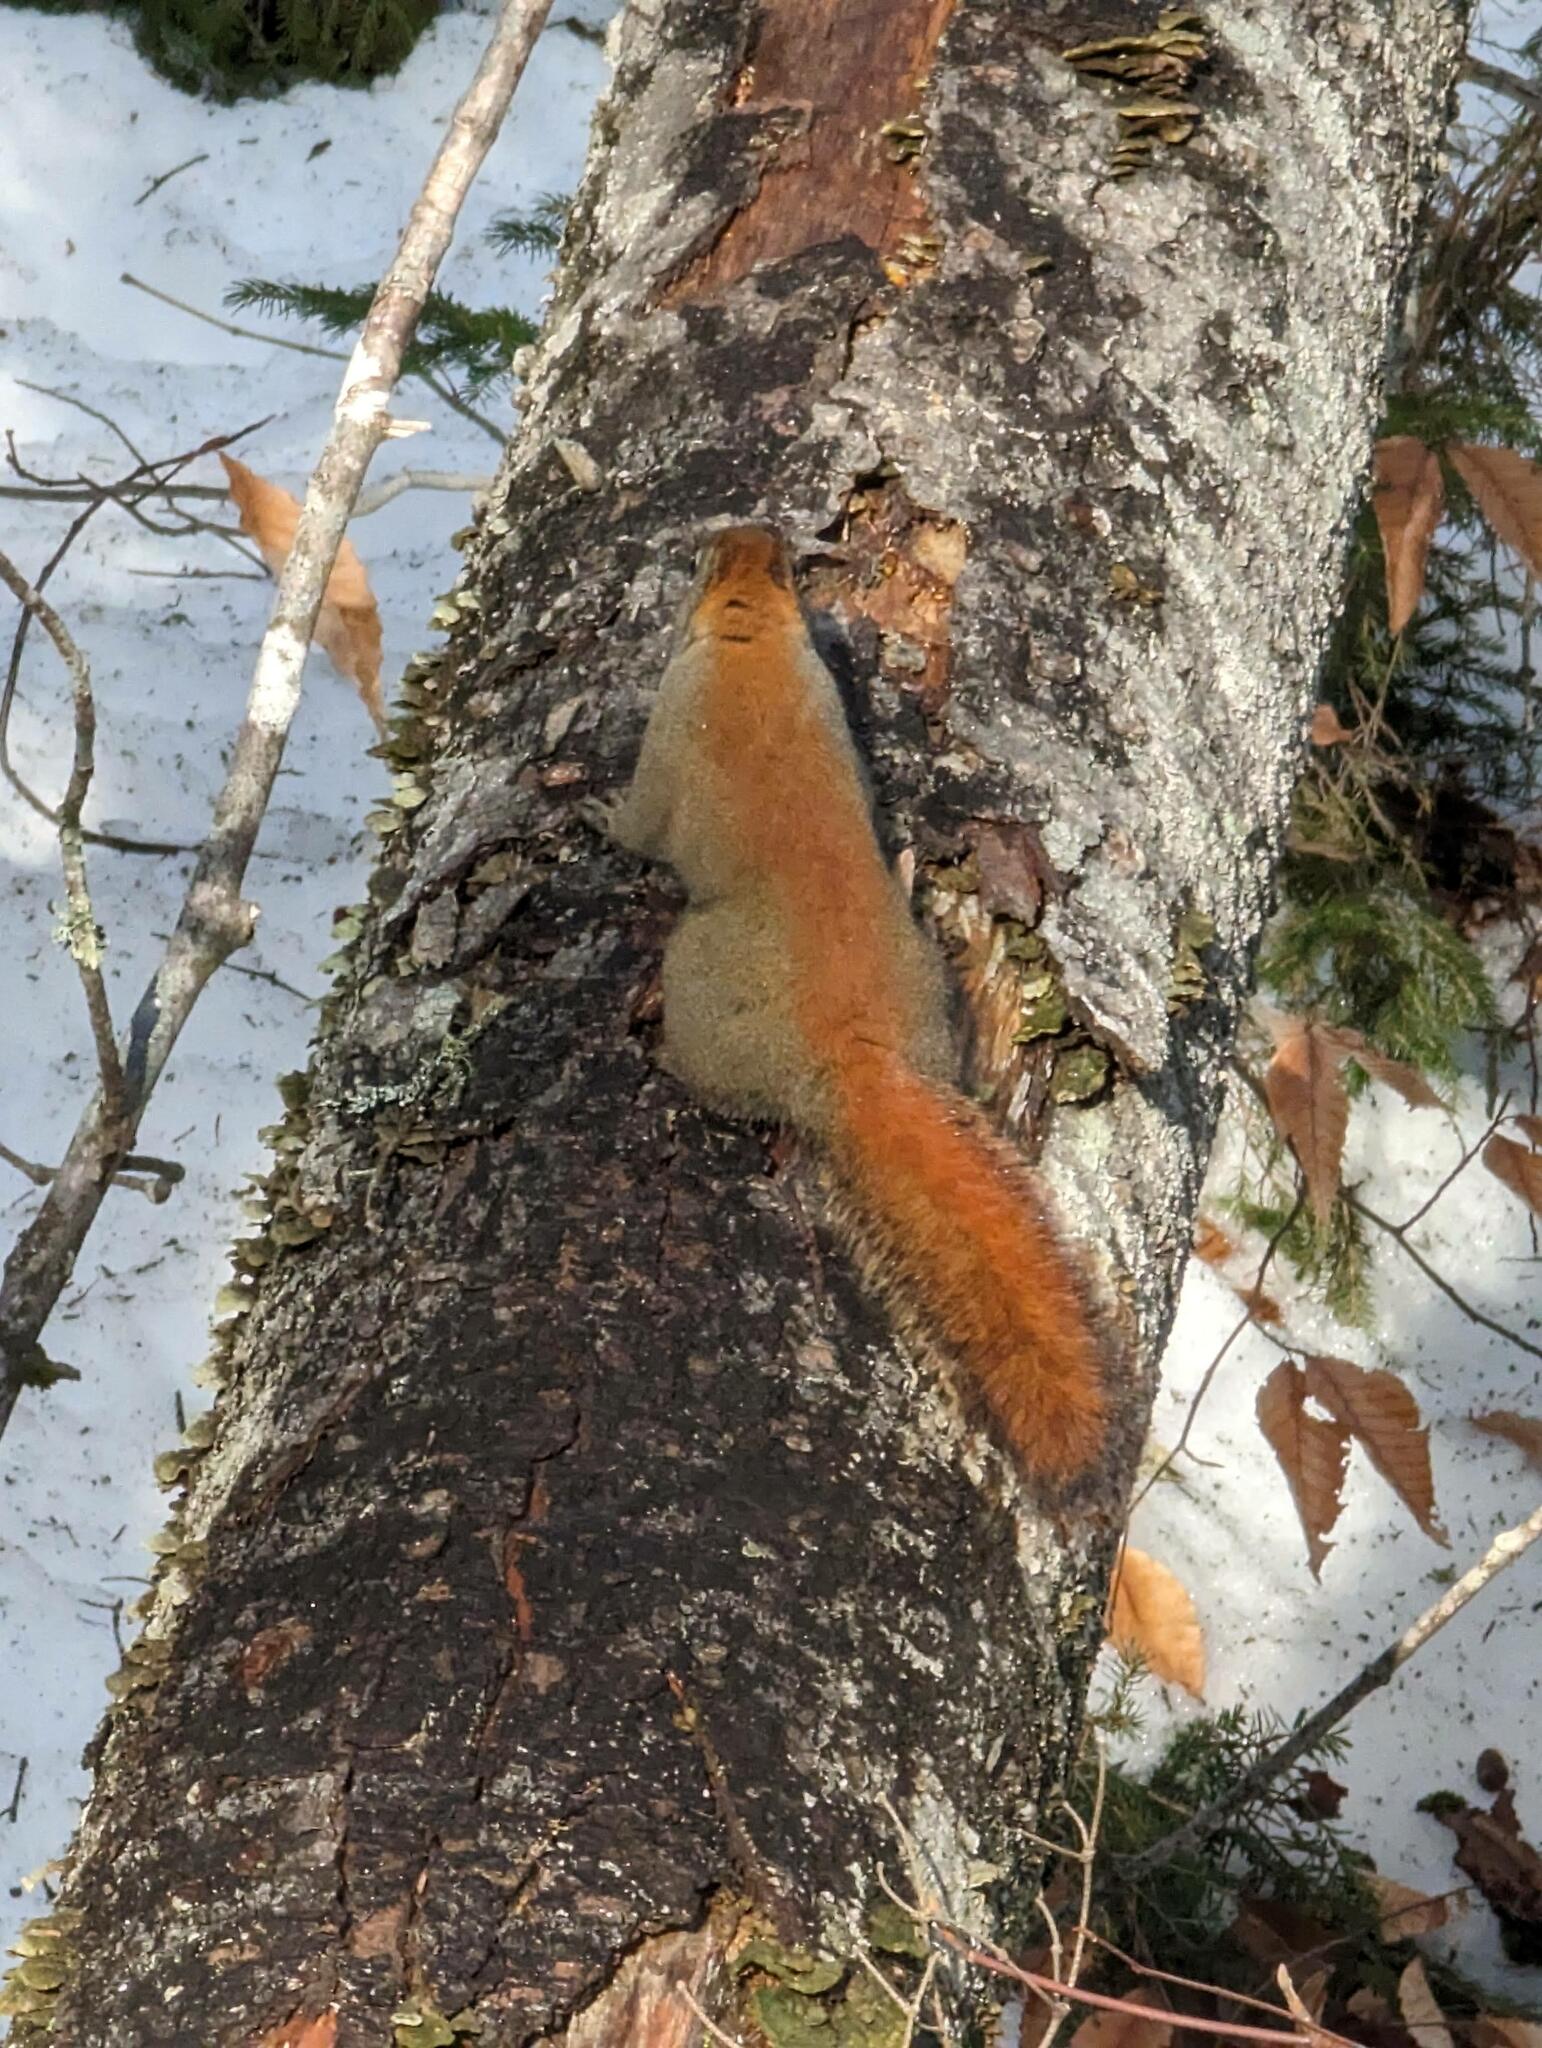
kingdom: Animalia
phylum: Chordata
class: Mammalia
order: Rodentia
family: Sciuridae
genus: Tamiasciurus
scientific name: Tamiasciurus hudsonicus
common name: Red squirrel
